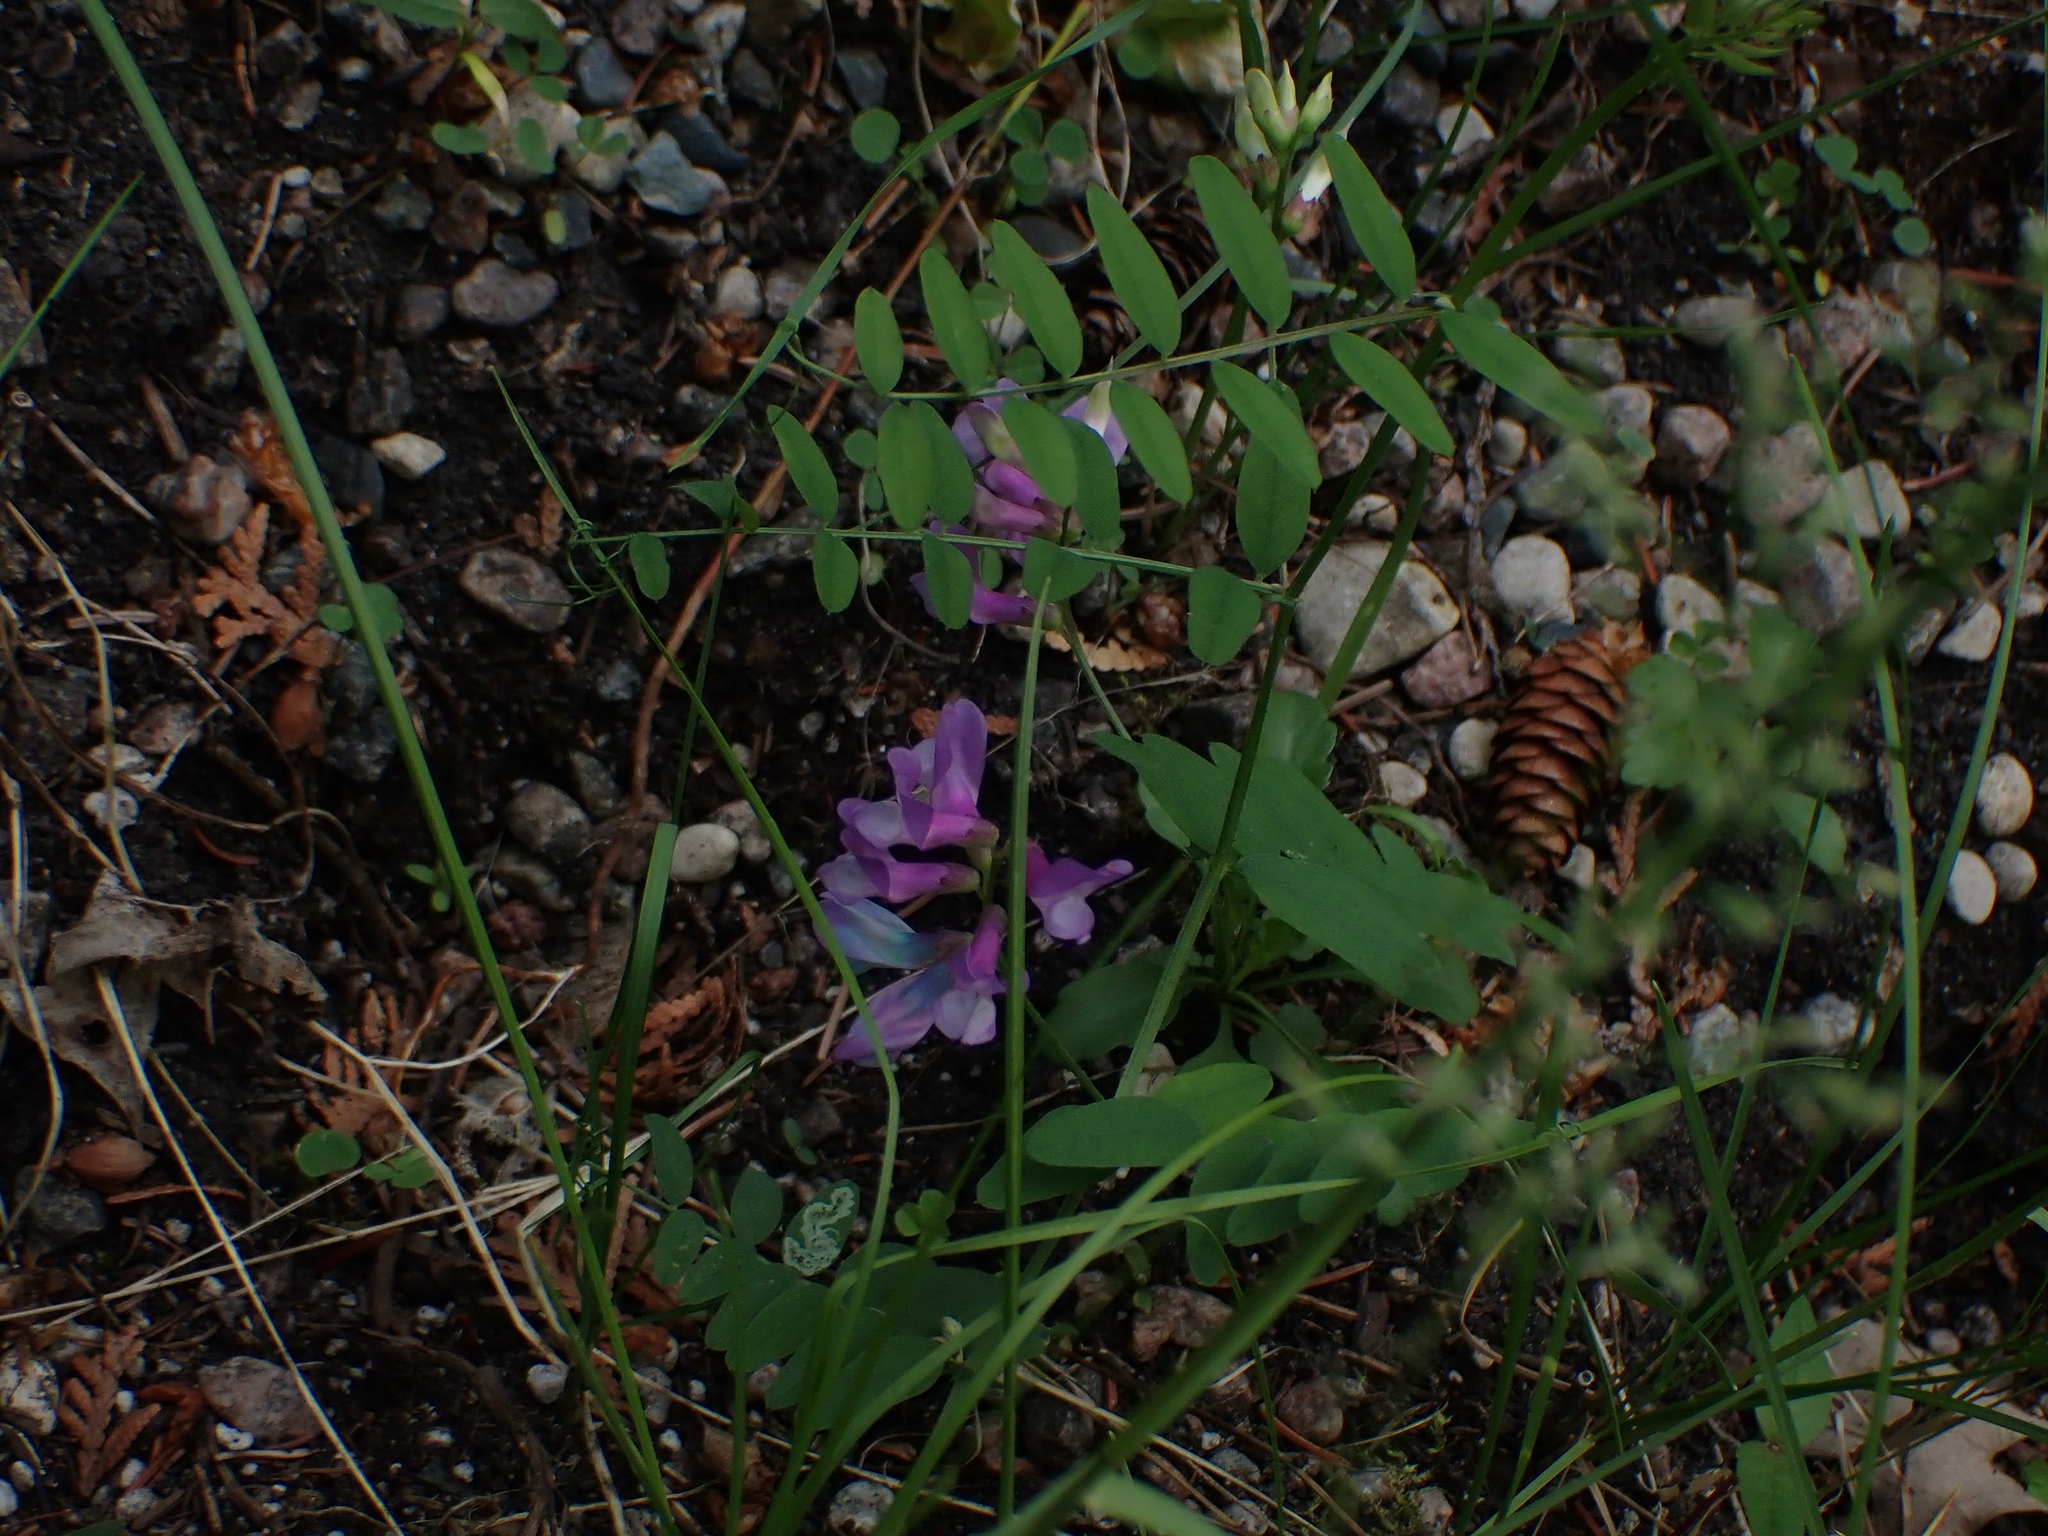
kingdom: Plantae
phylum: Tracheophyta
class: Magnoliopsida
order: Fabales
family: Fabaceae
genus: Vicia
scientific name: Vicia americana
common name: American vetch
